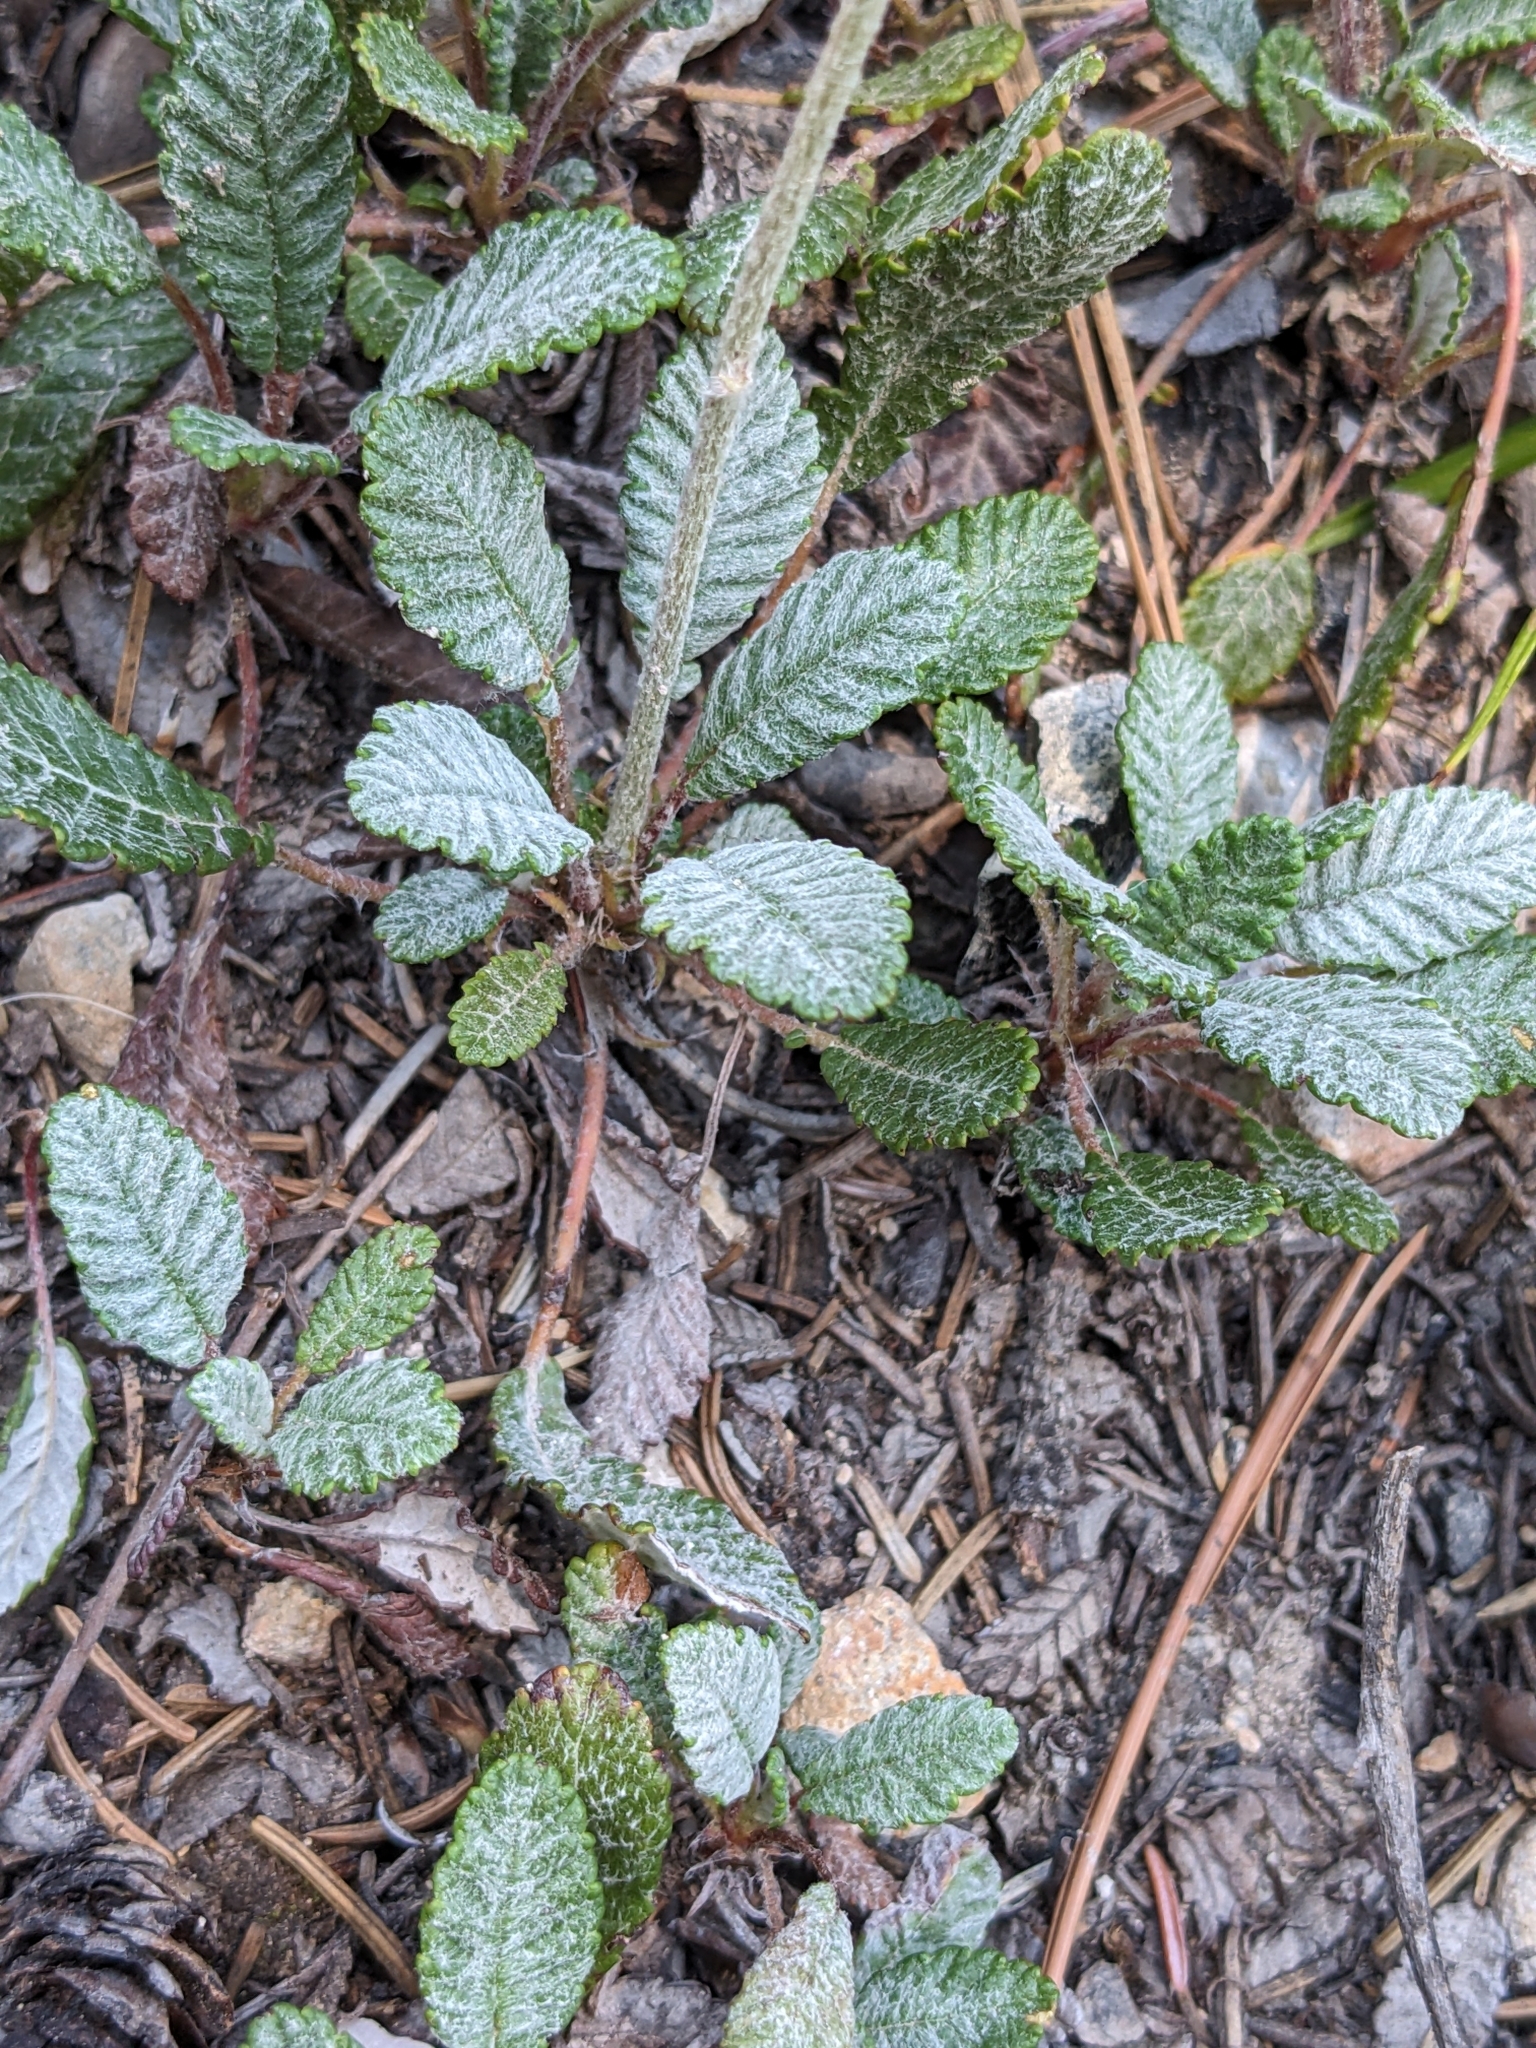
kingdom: Plantae
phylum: Tracheophyta
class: Magnoliopsida
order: Rosales
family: Rosaceae
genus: Dryas
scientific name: Dryas drummondii
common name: Drummond's dryad
